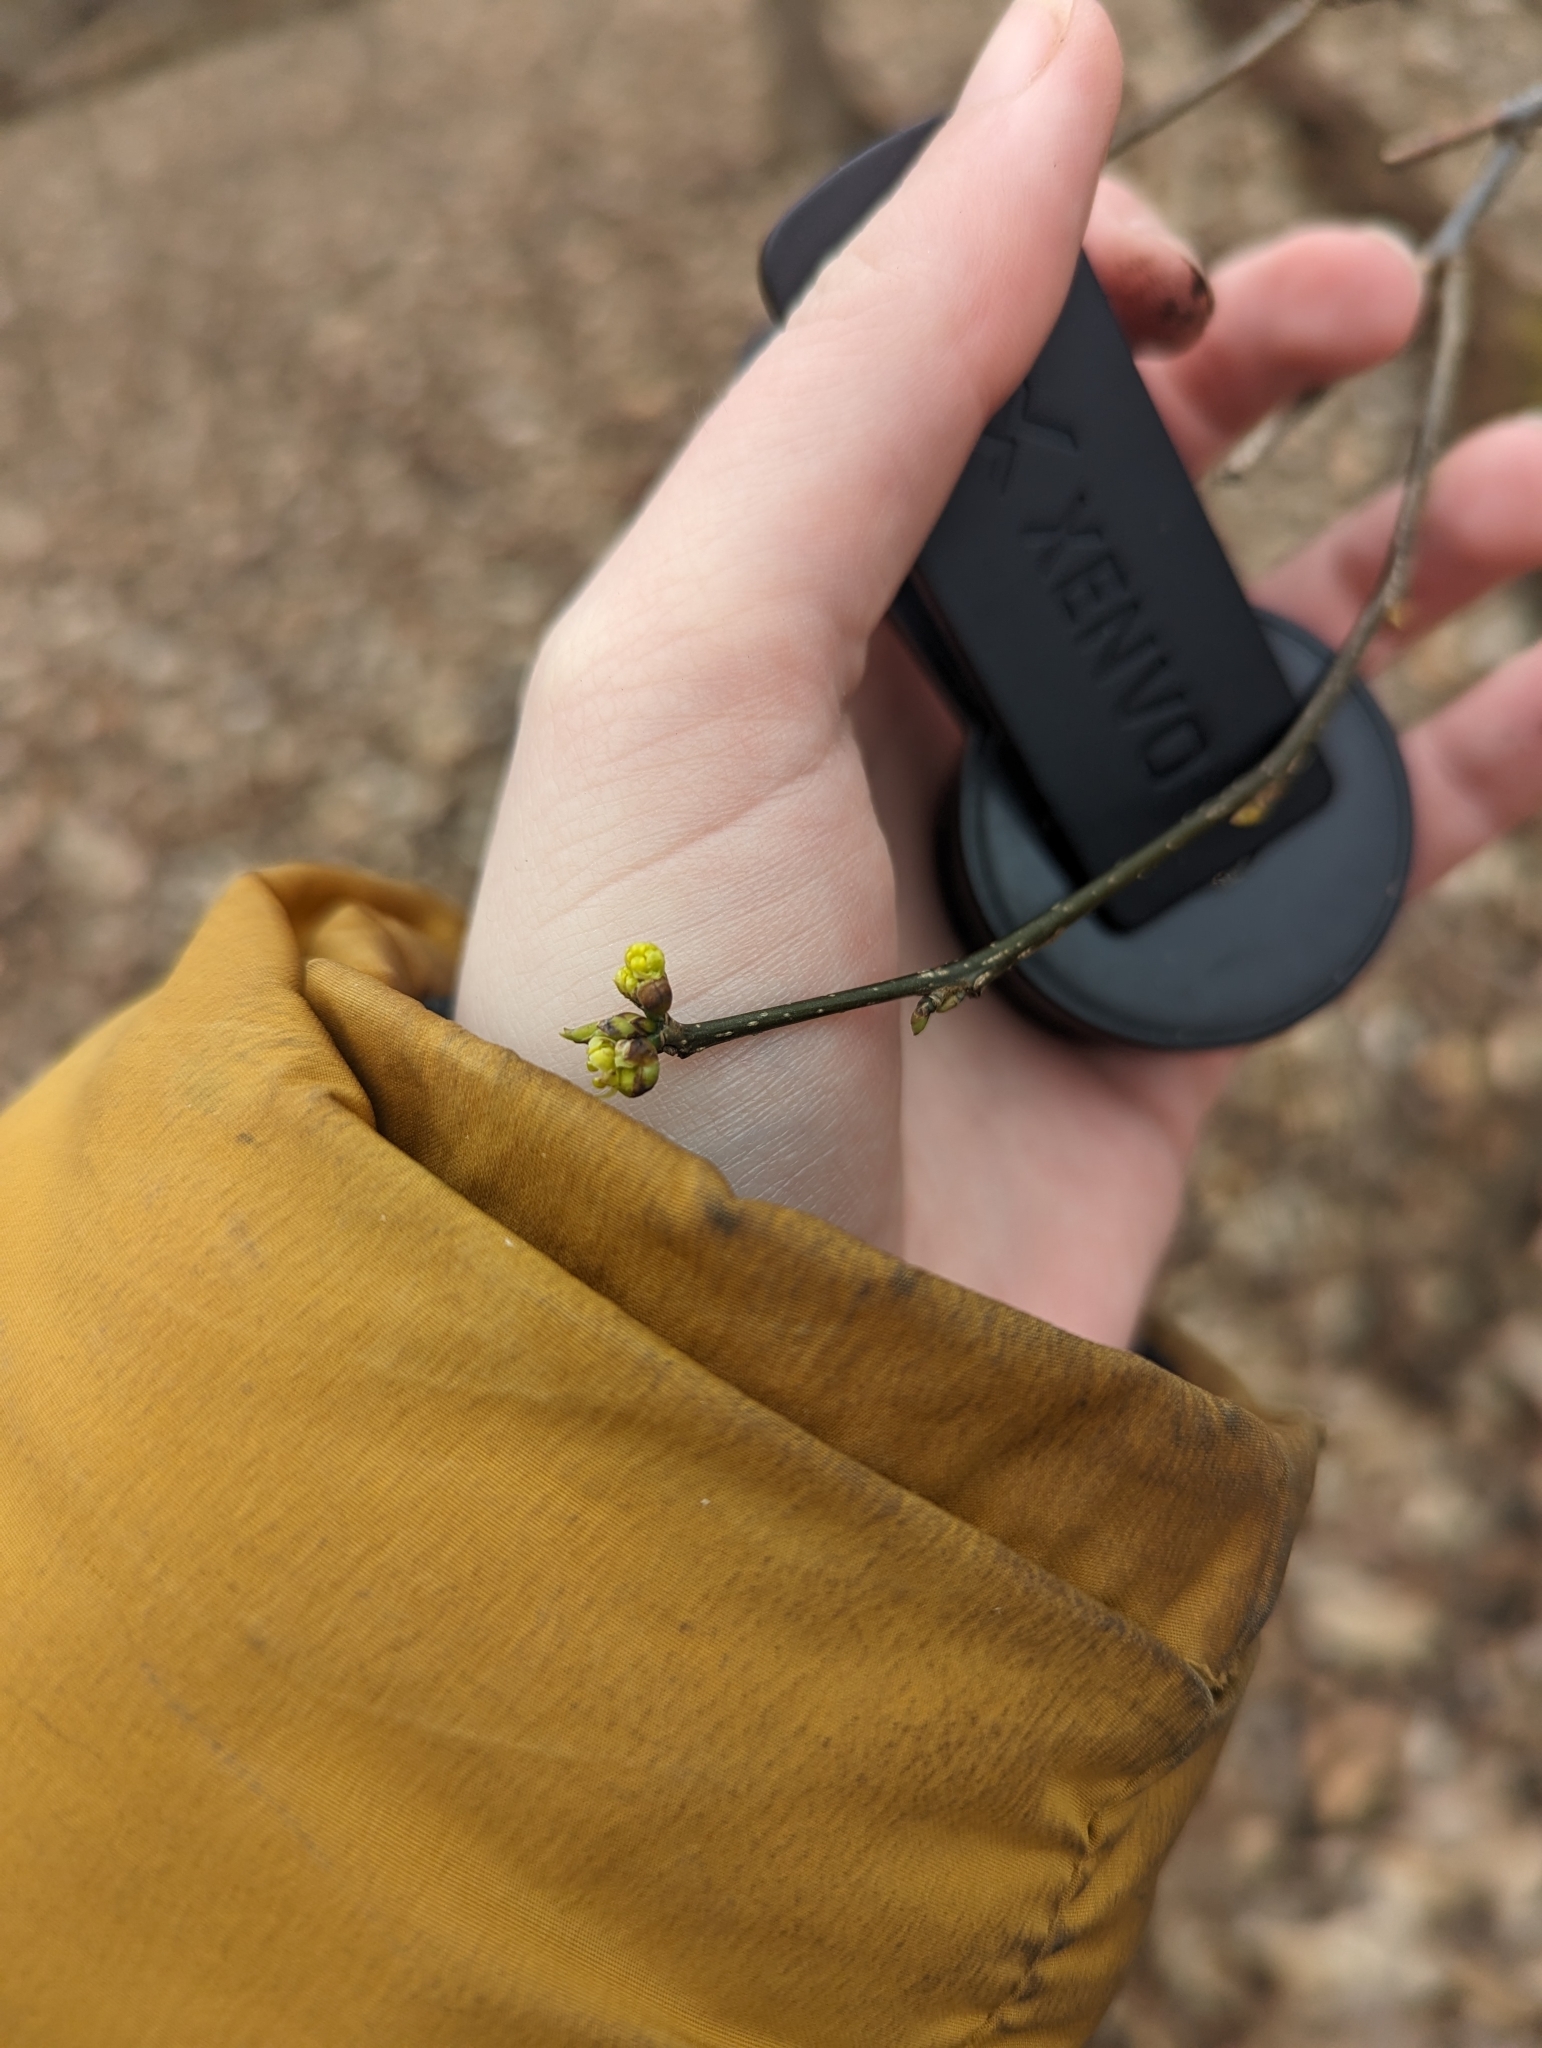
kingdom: Plantae
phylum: Tracheophyta
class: Magnoliopsida
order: Laurales
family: Lauraceae
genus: Lindera
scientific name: Lindera benzoin
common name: Spicebush
